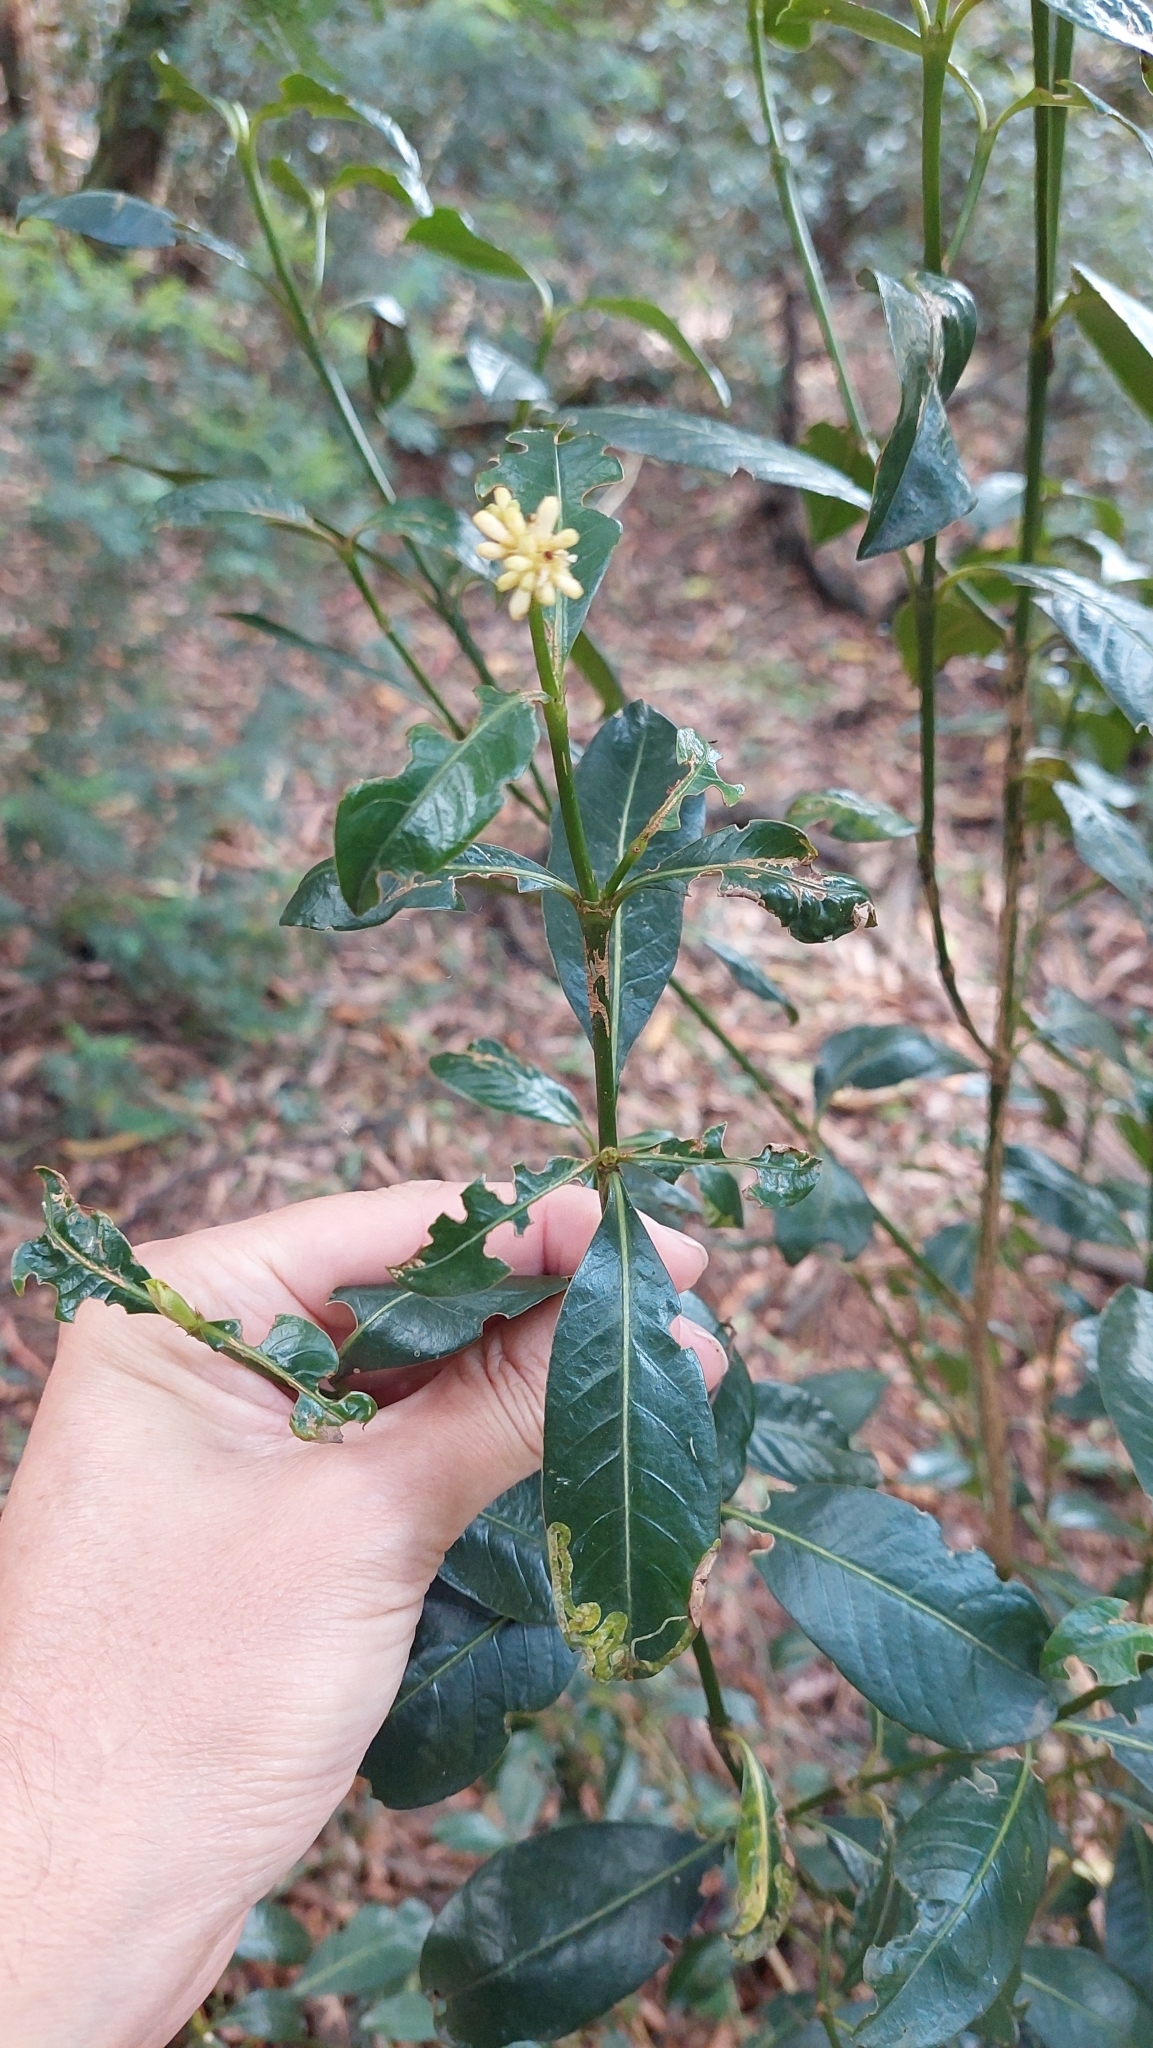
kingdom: Plantae
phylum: Tracheophyta
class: Magnoliopsida
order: Gentianales
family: Rubiaceae
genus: Palicourea
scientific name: Palicourea boqueronensis
